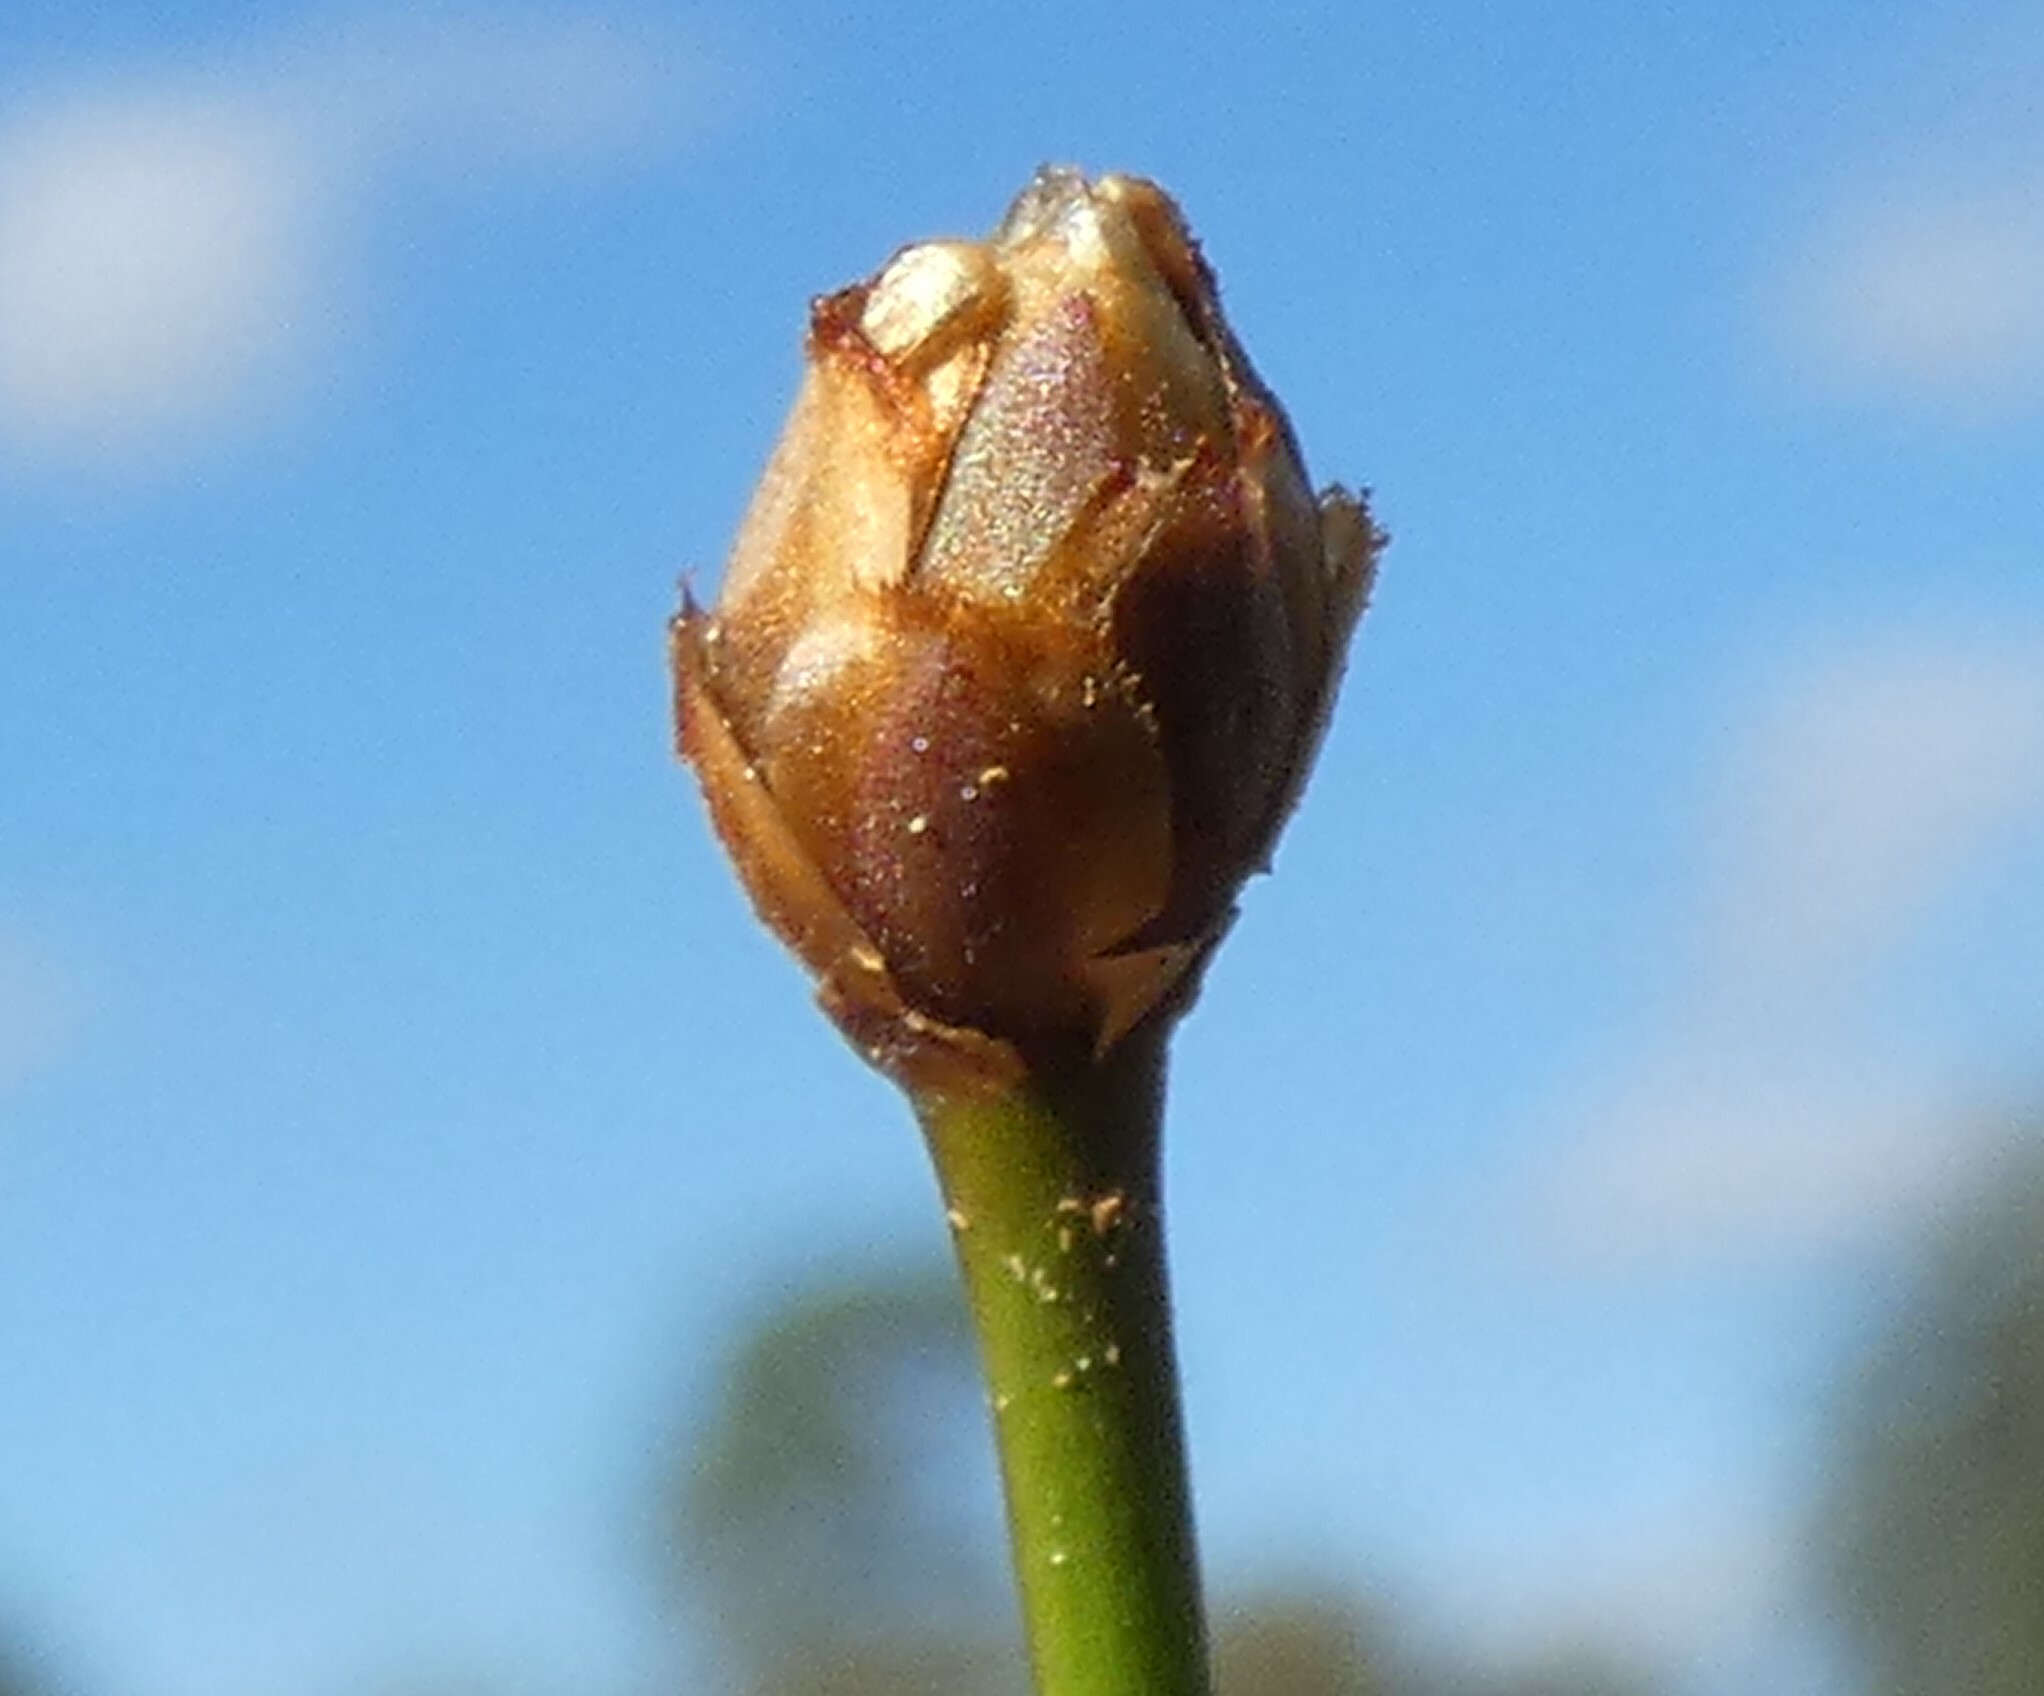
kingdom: Plantae
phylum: Tracheophyta
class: Liliopsida
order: Poales
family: Xyridaceae
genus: Xyris
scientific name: Xyris brevifolia
